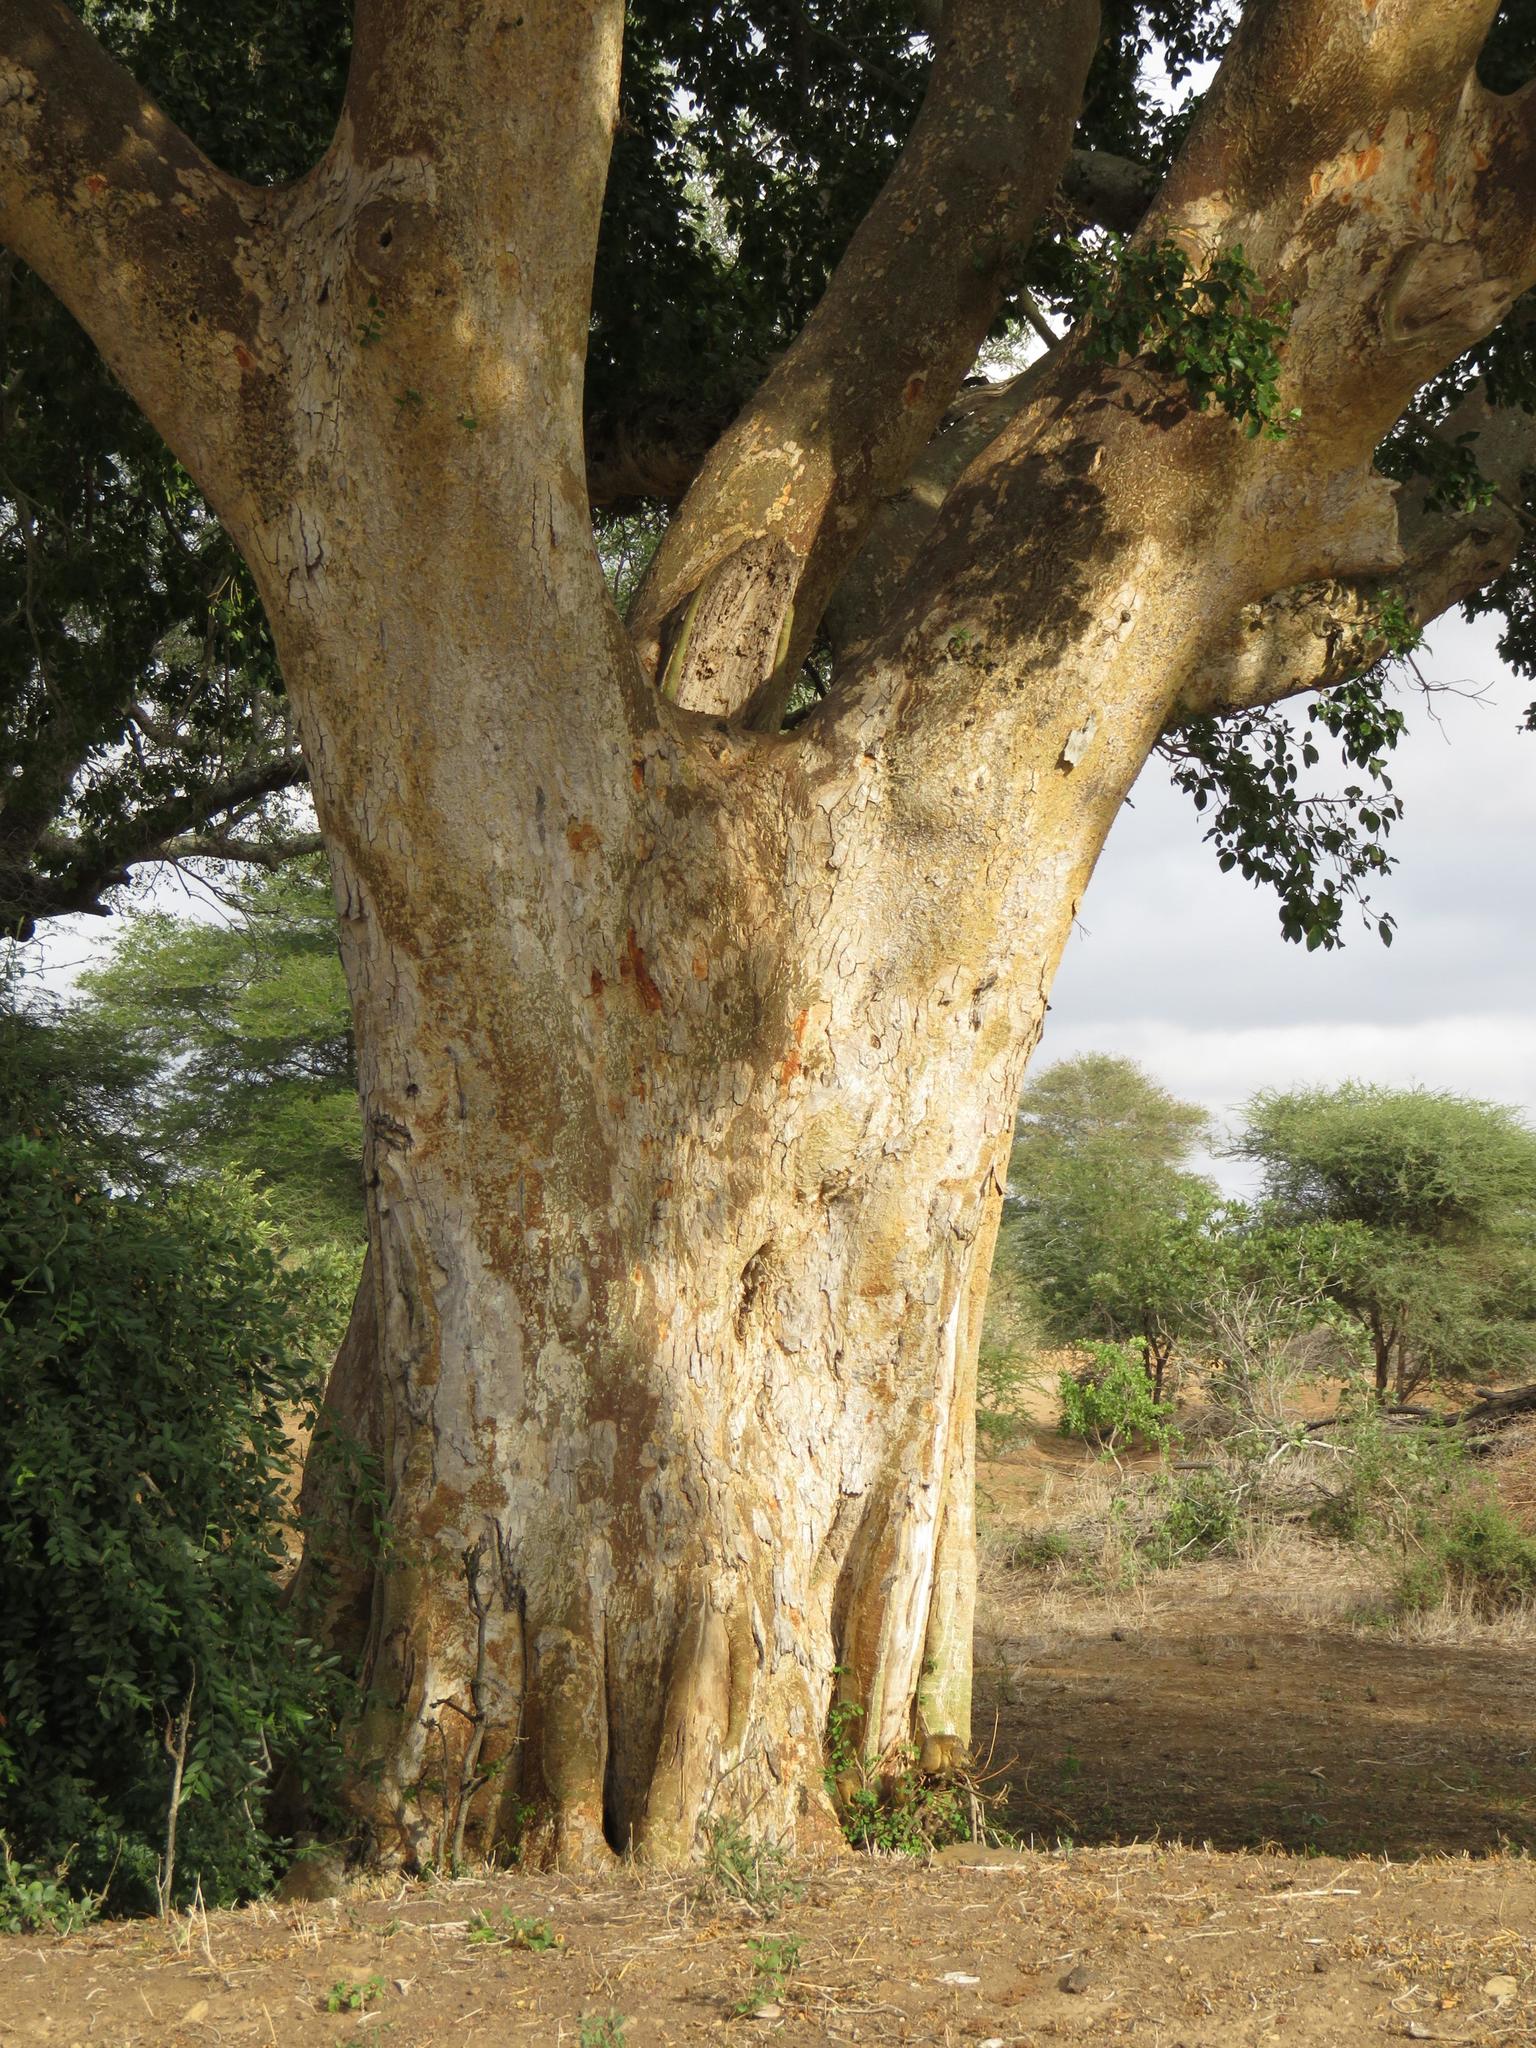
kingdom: Plantae
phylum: Tracheophyta
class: Magnoliopsida
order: Rosales
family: Moraceae
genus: Ficus
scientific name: Ficus sycomorus
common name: Sycomore
